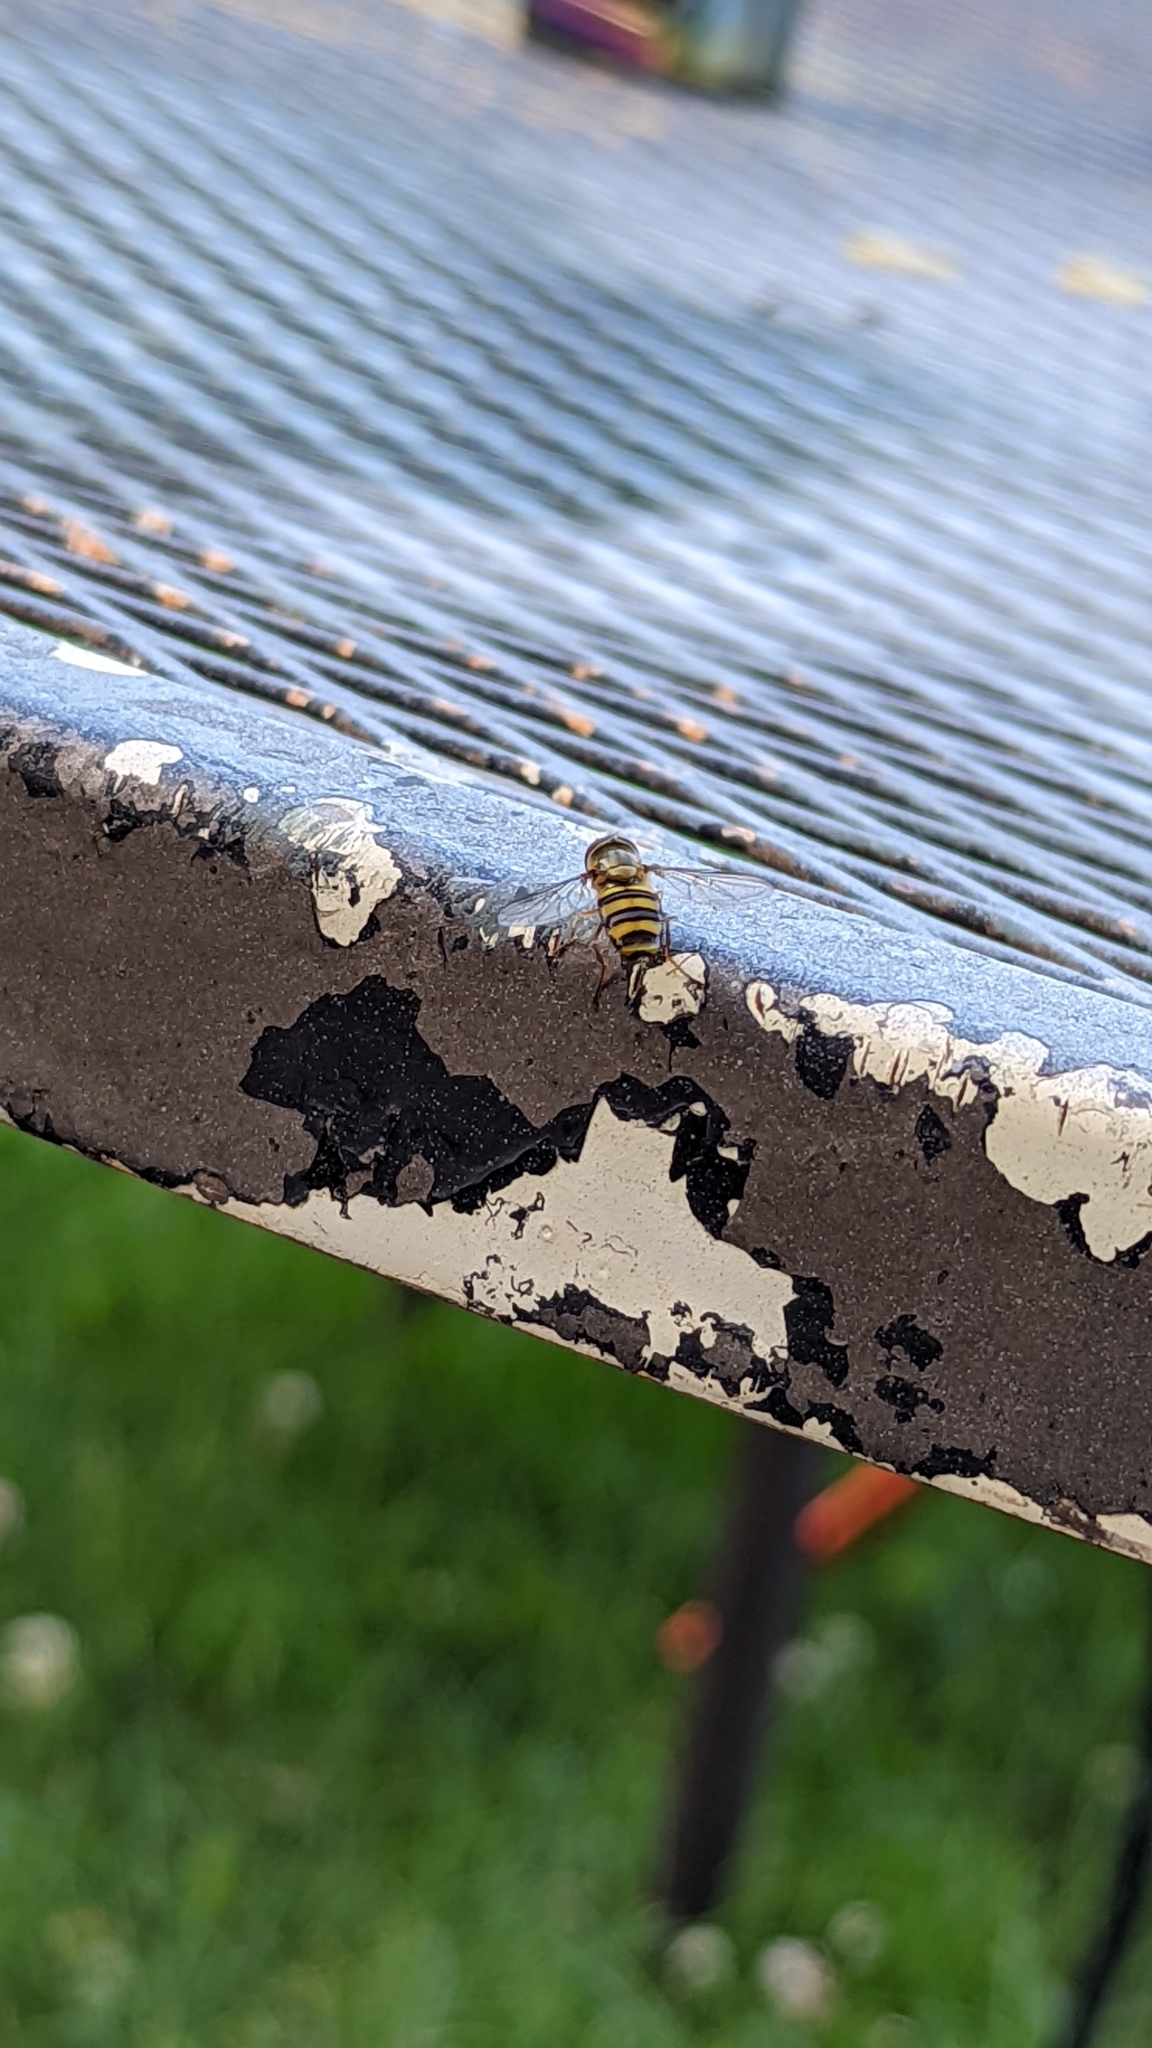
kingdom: Animalia
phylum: Arthropoda
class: Insecta
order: Diptera
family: Syrphidae
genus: Eupeodes
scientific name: Eupeodes
